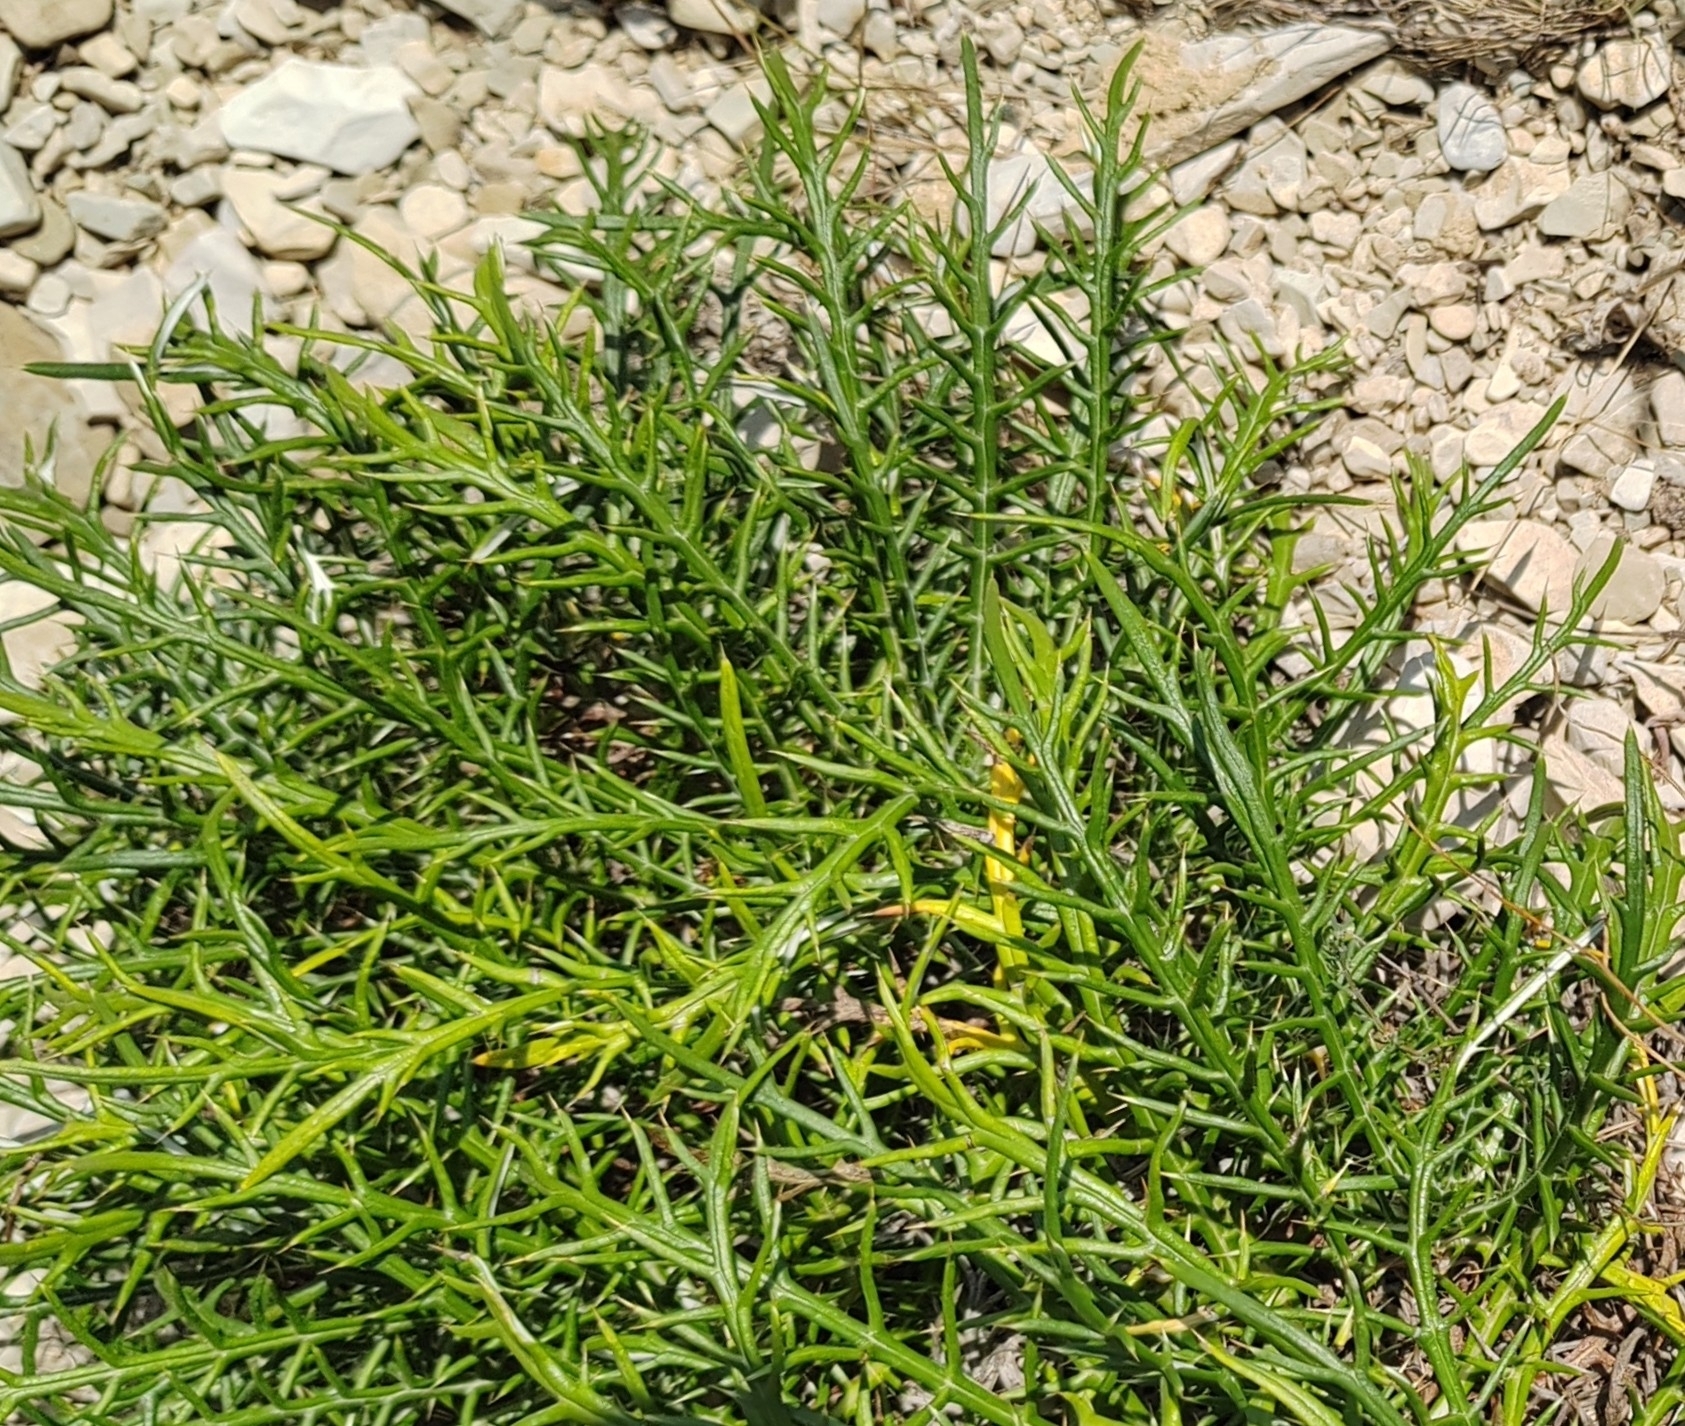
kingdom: Plantae
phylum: Tracheophyta
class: Magnoliopsida
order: Asterales
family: Asteraceae
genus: Ptilostemon
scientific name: Ptilostemon echinocephalus
